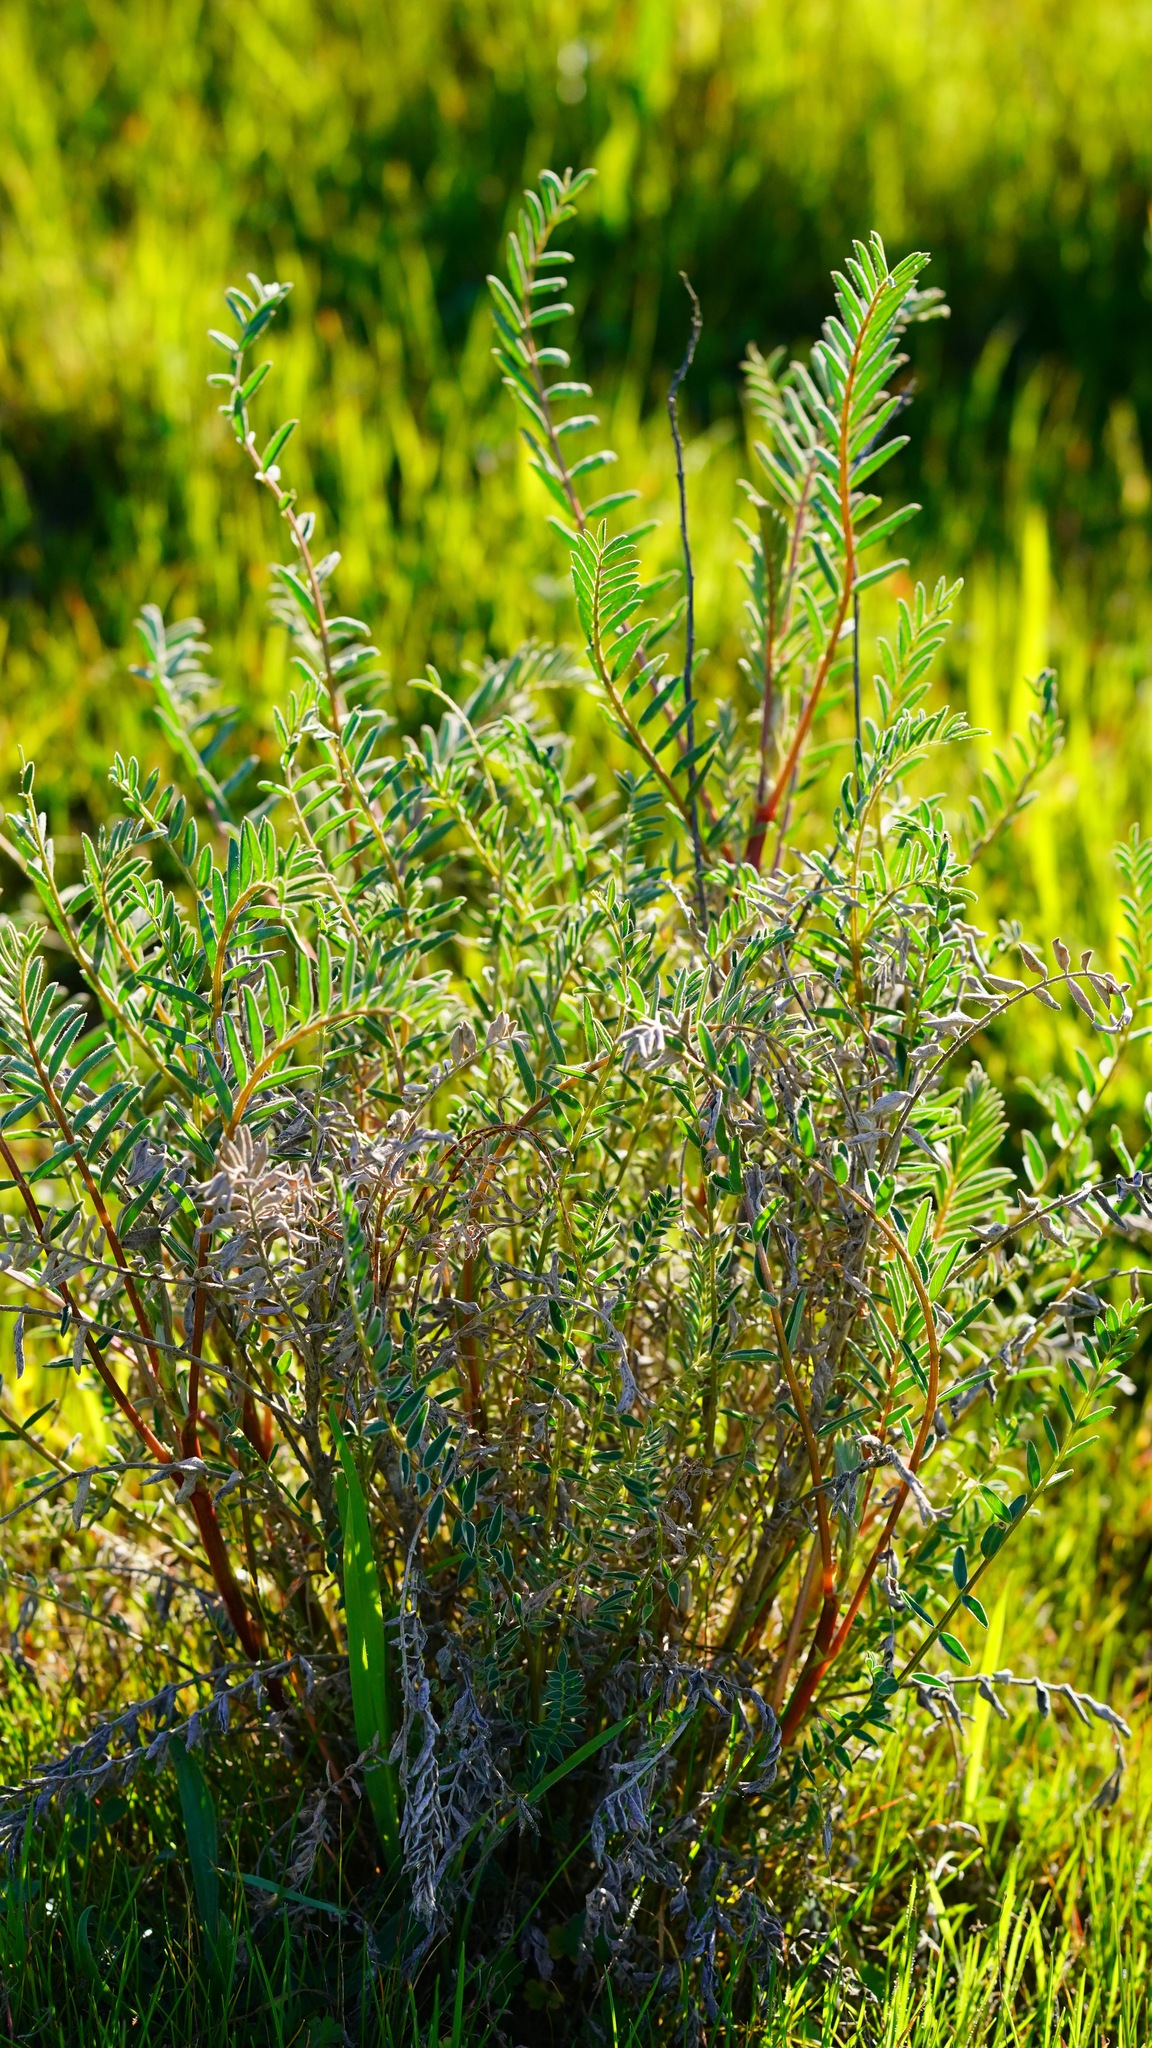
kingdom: Plantae
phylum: Tracheophyta
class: Magnoliopsida
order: Fabales
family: Fabaceae
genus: Astragalus
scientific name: Astragalus asymmetricus
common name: Horse locoweed
